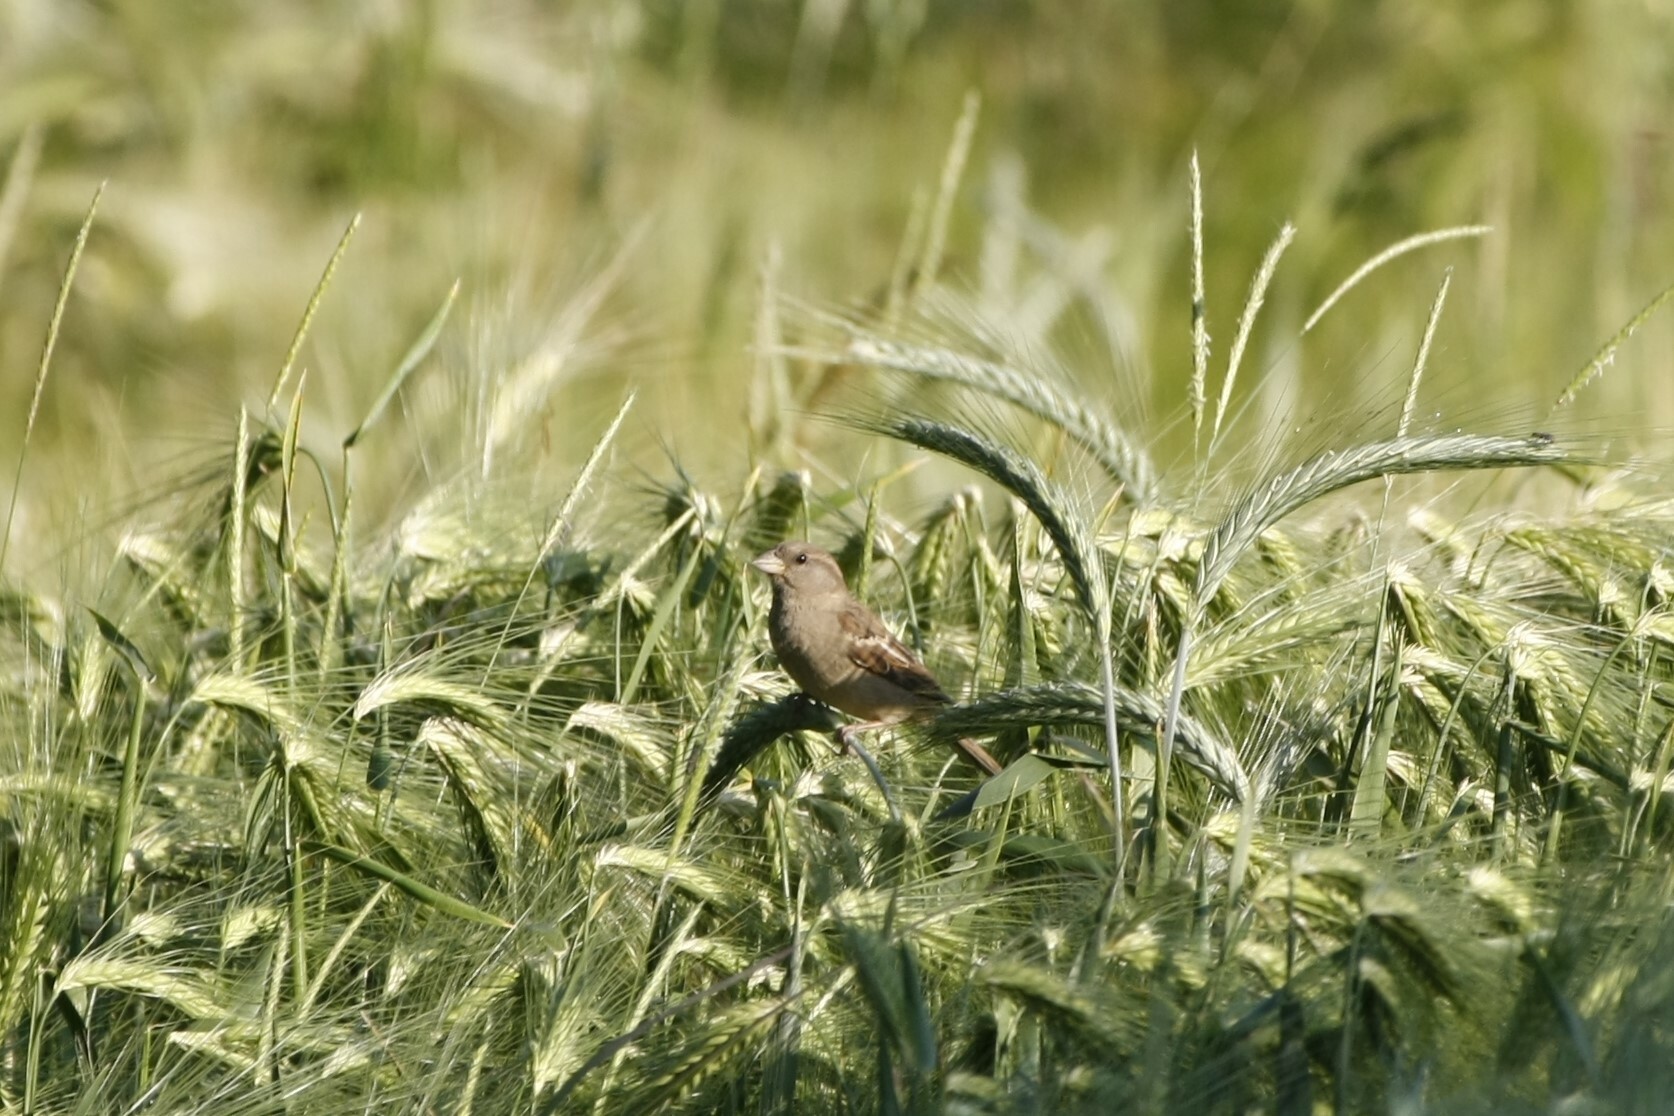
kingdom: Animalia
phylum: Chordata
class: Aves
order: Passeriformes
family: Passeridae
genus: Passer
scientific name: Passer domesticus
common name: House sparrow
